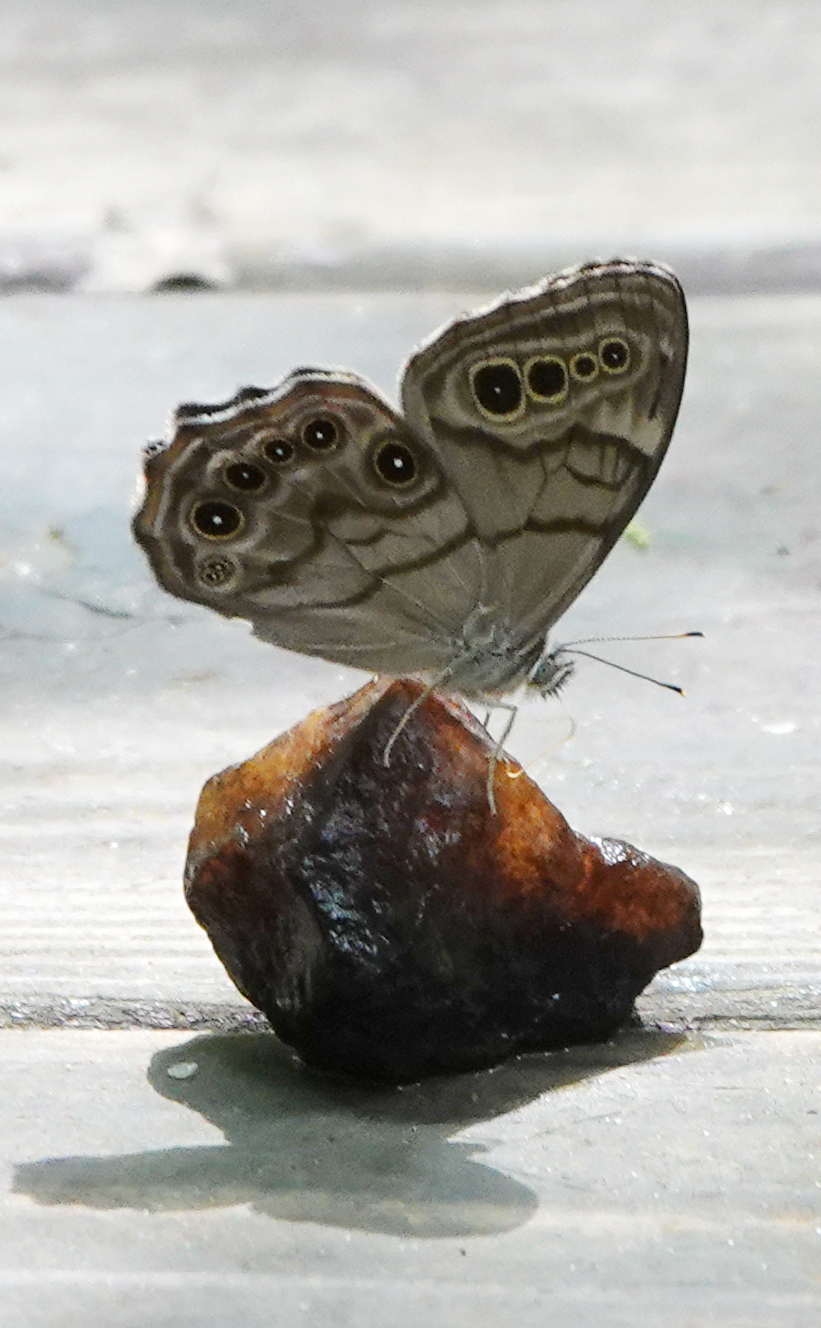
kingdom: Animalia
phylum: Arthropoda
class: Insecta
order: Lepidoptera
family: Nymphalidae
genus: Lethe
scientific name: Lethe anthedon
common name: Northern pearly-eye
